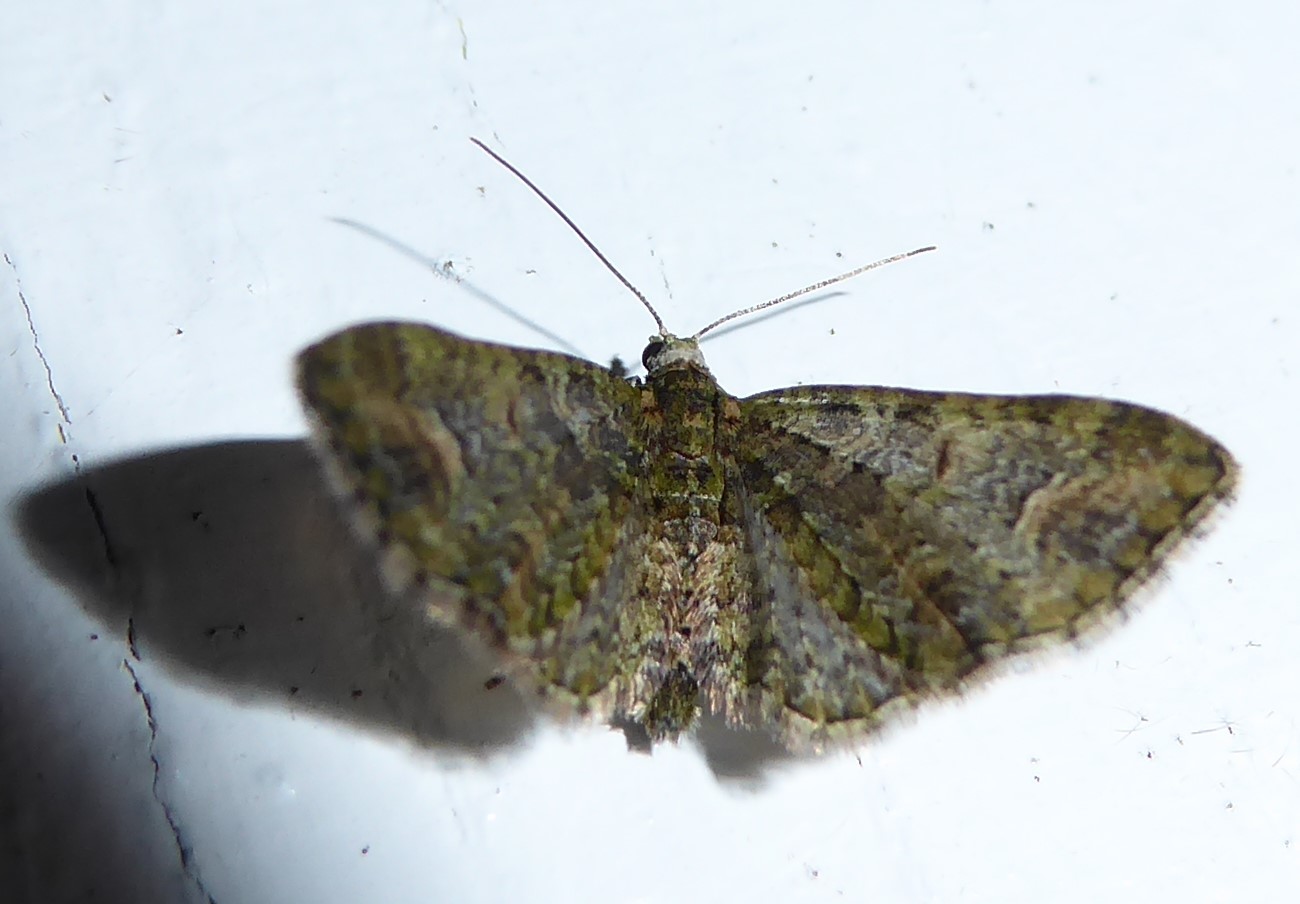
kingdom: Animalia
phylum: Arthropoda
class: Insecta
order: Lepidoptera
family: Geometridae
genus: Idaea
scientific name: Idaea mutanda
